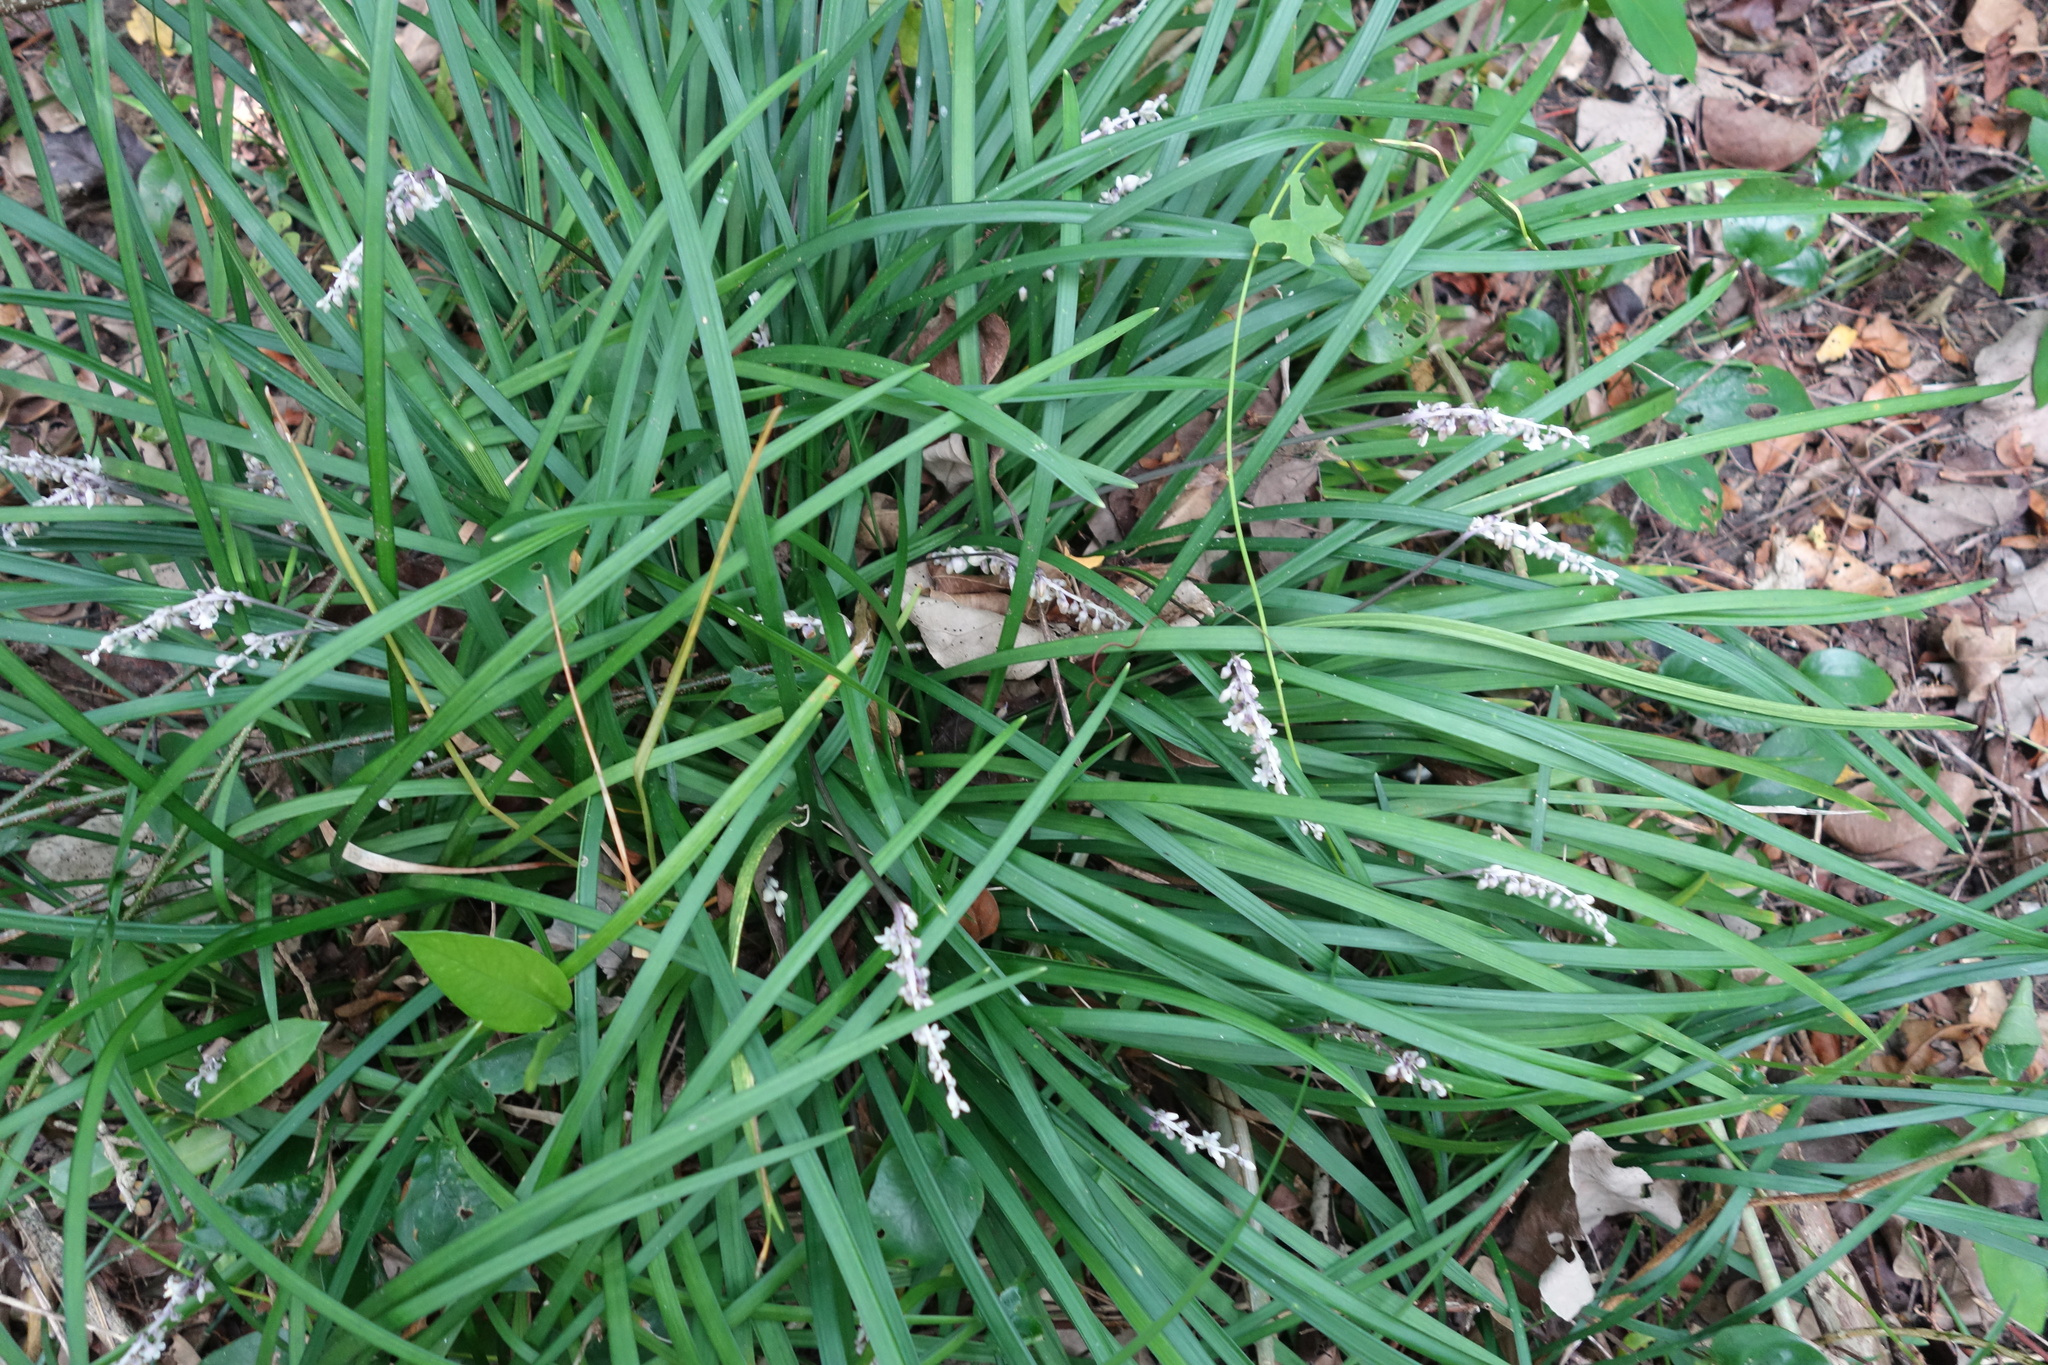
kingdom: Plantae
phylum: Tracheophyta
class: Liliopsida
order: Asparagales
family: Asparagaceae
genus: Ophiopogon
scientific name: Ophiopogon reversus
